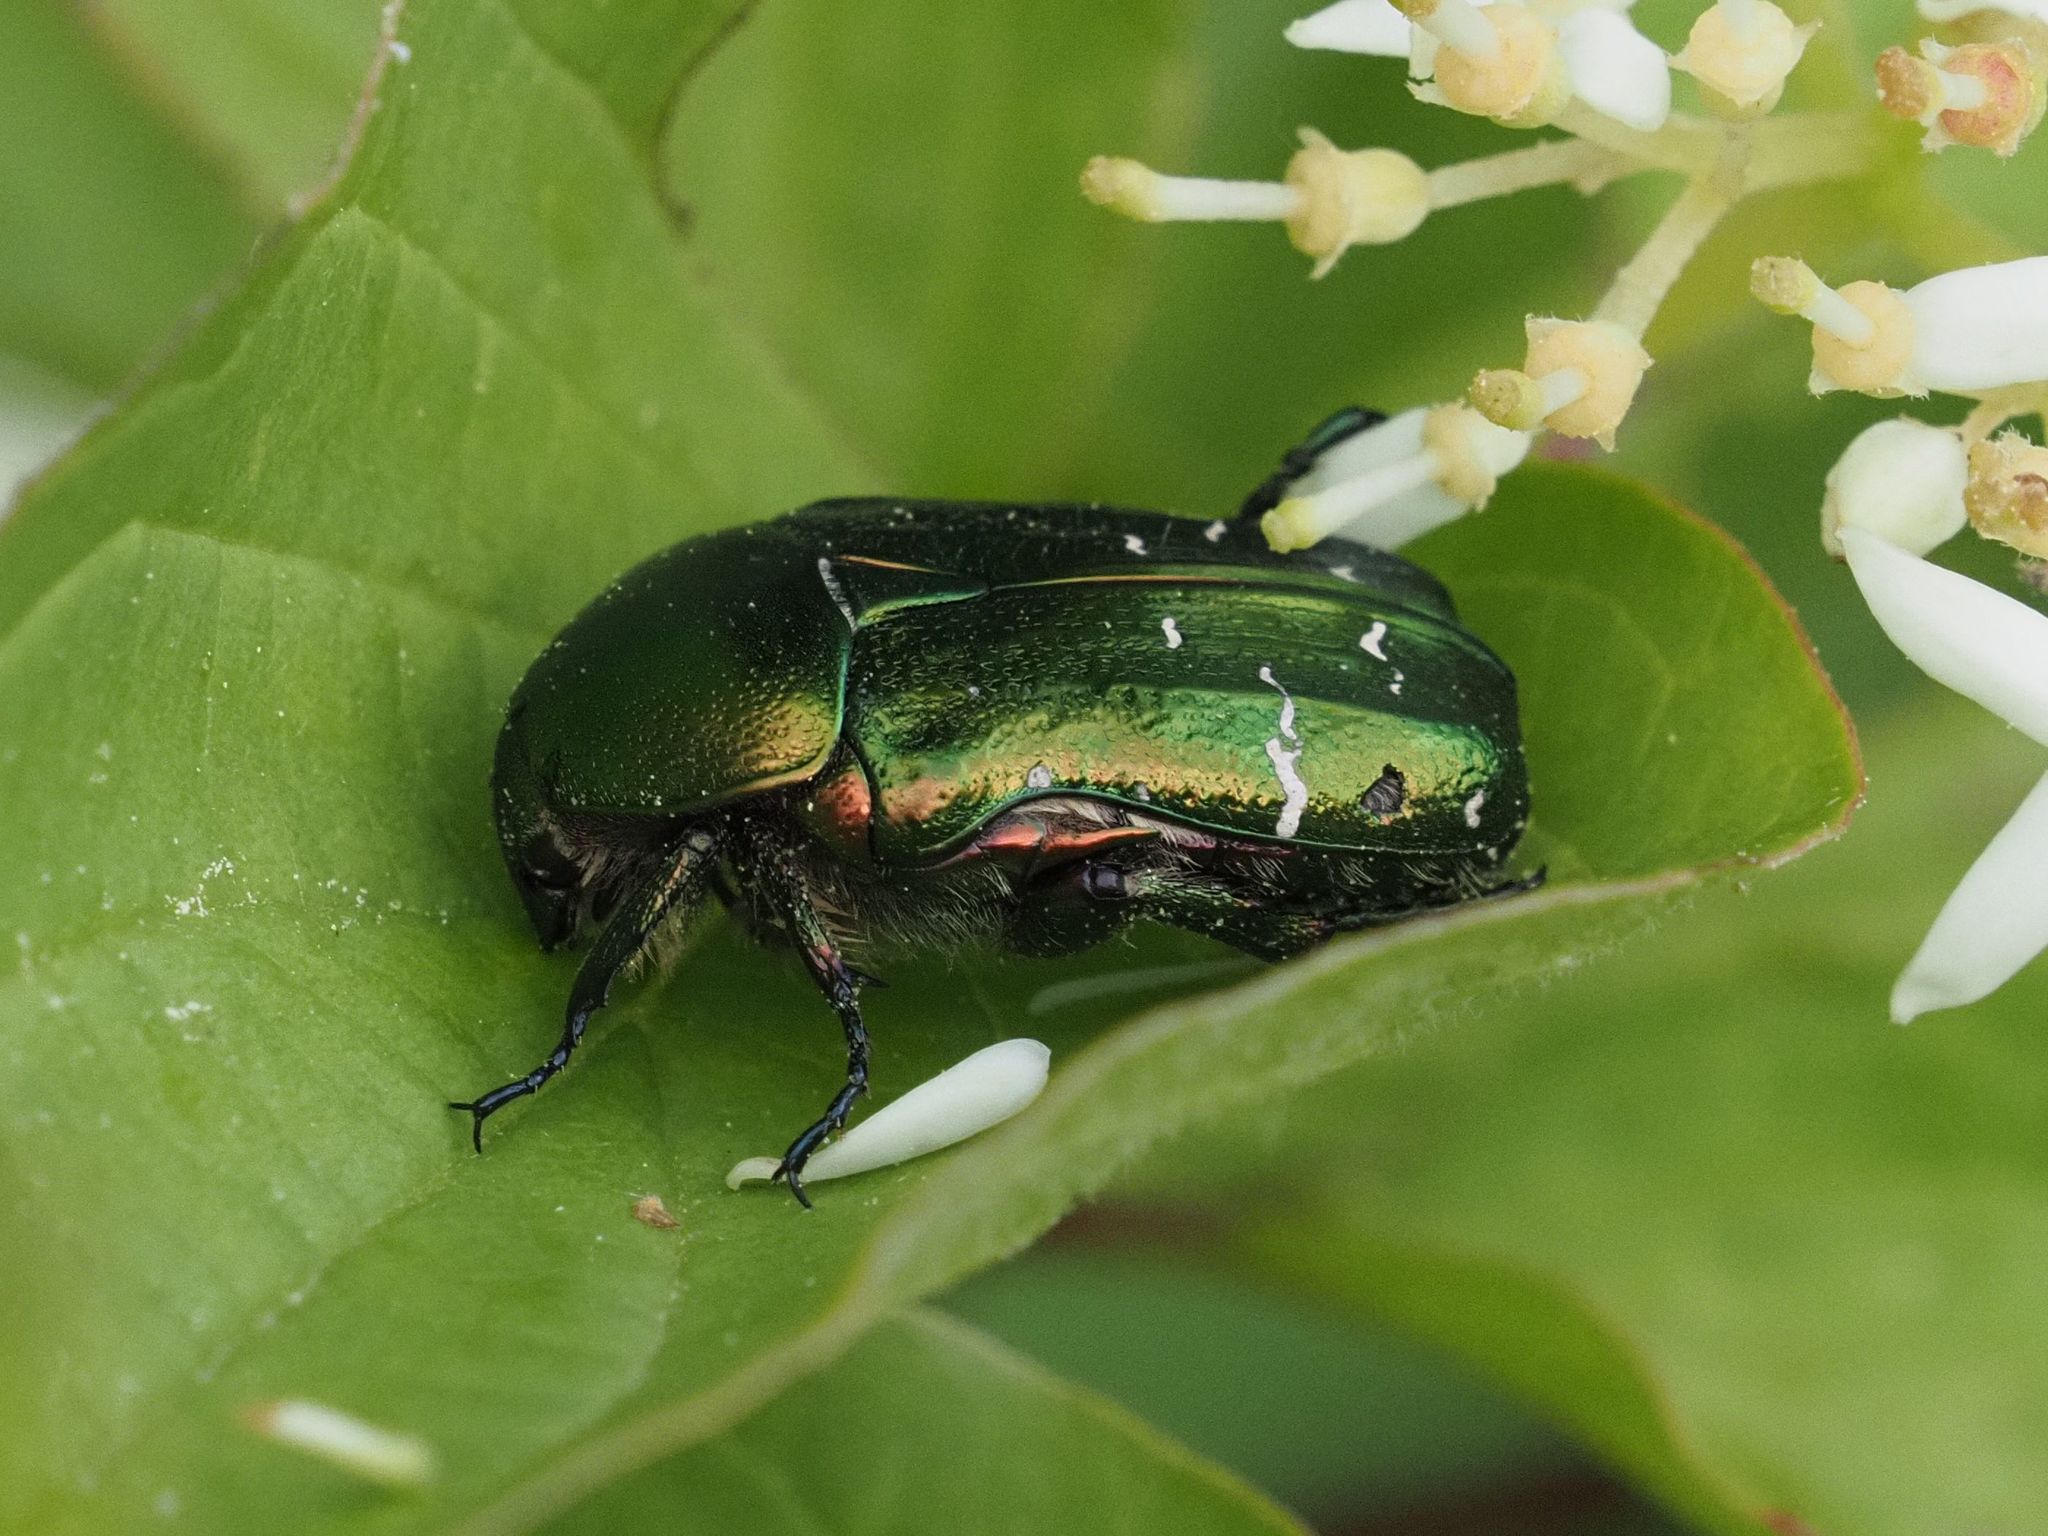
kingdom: Animalia
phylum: Arthropoda
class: Insecta
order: Coleoptera
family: Scarabaeidae
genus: Cetonia
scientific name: Cetonia aurata
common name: Rose chafer
